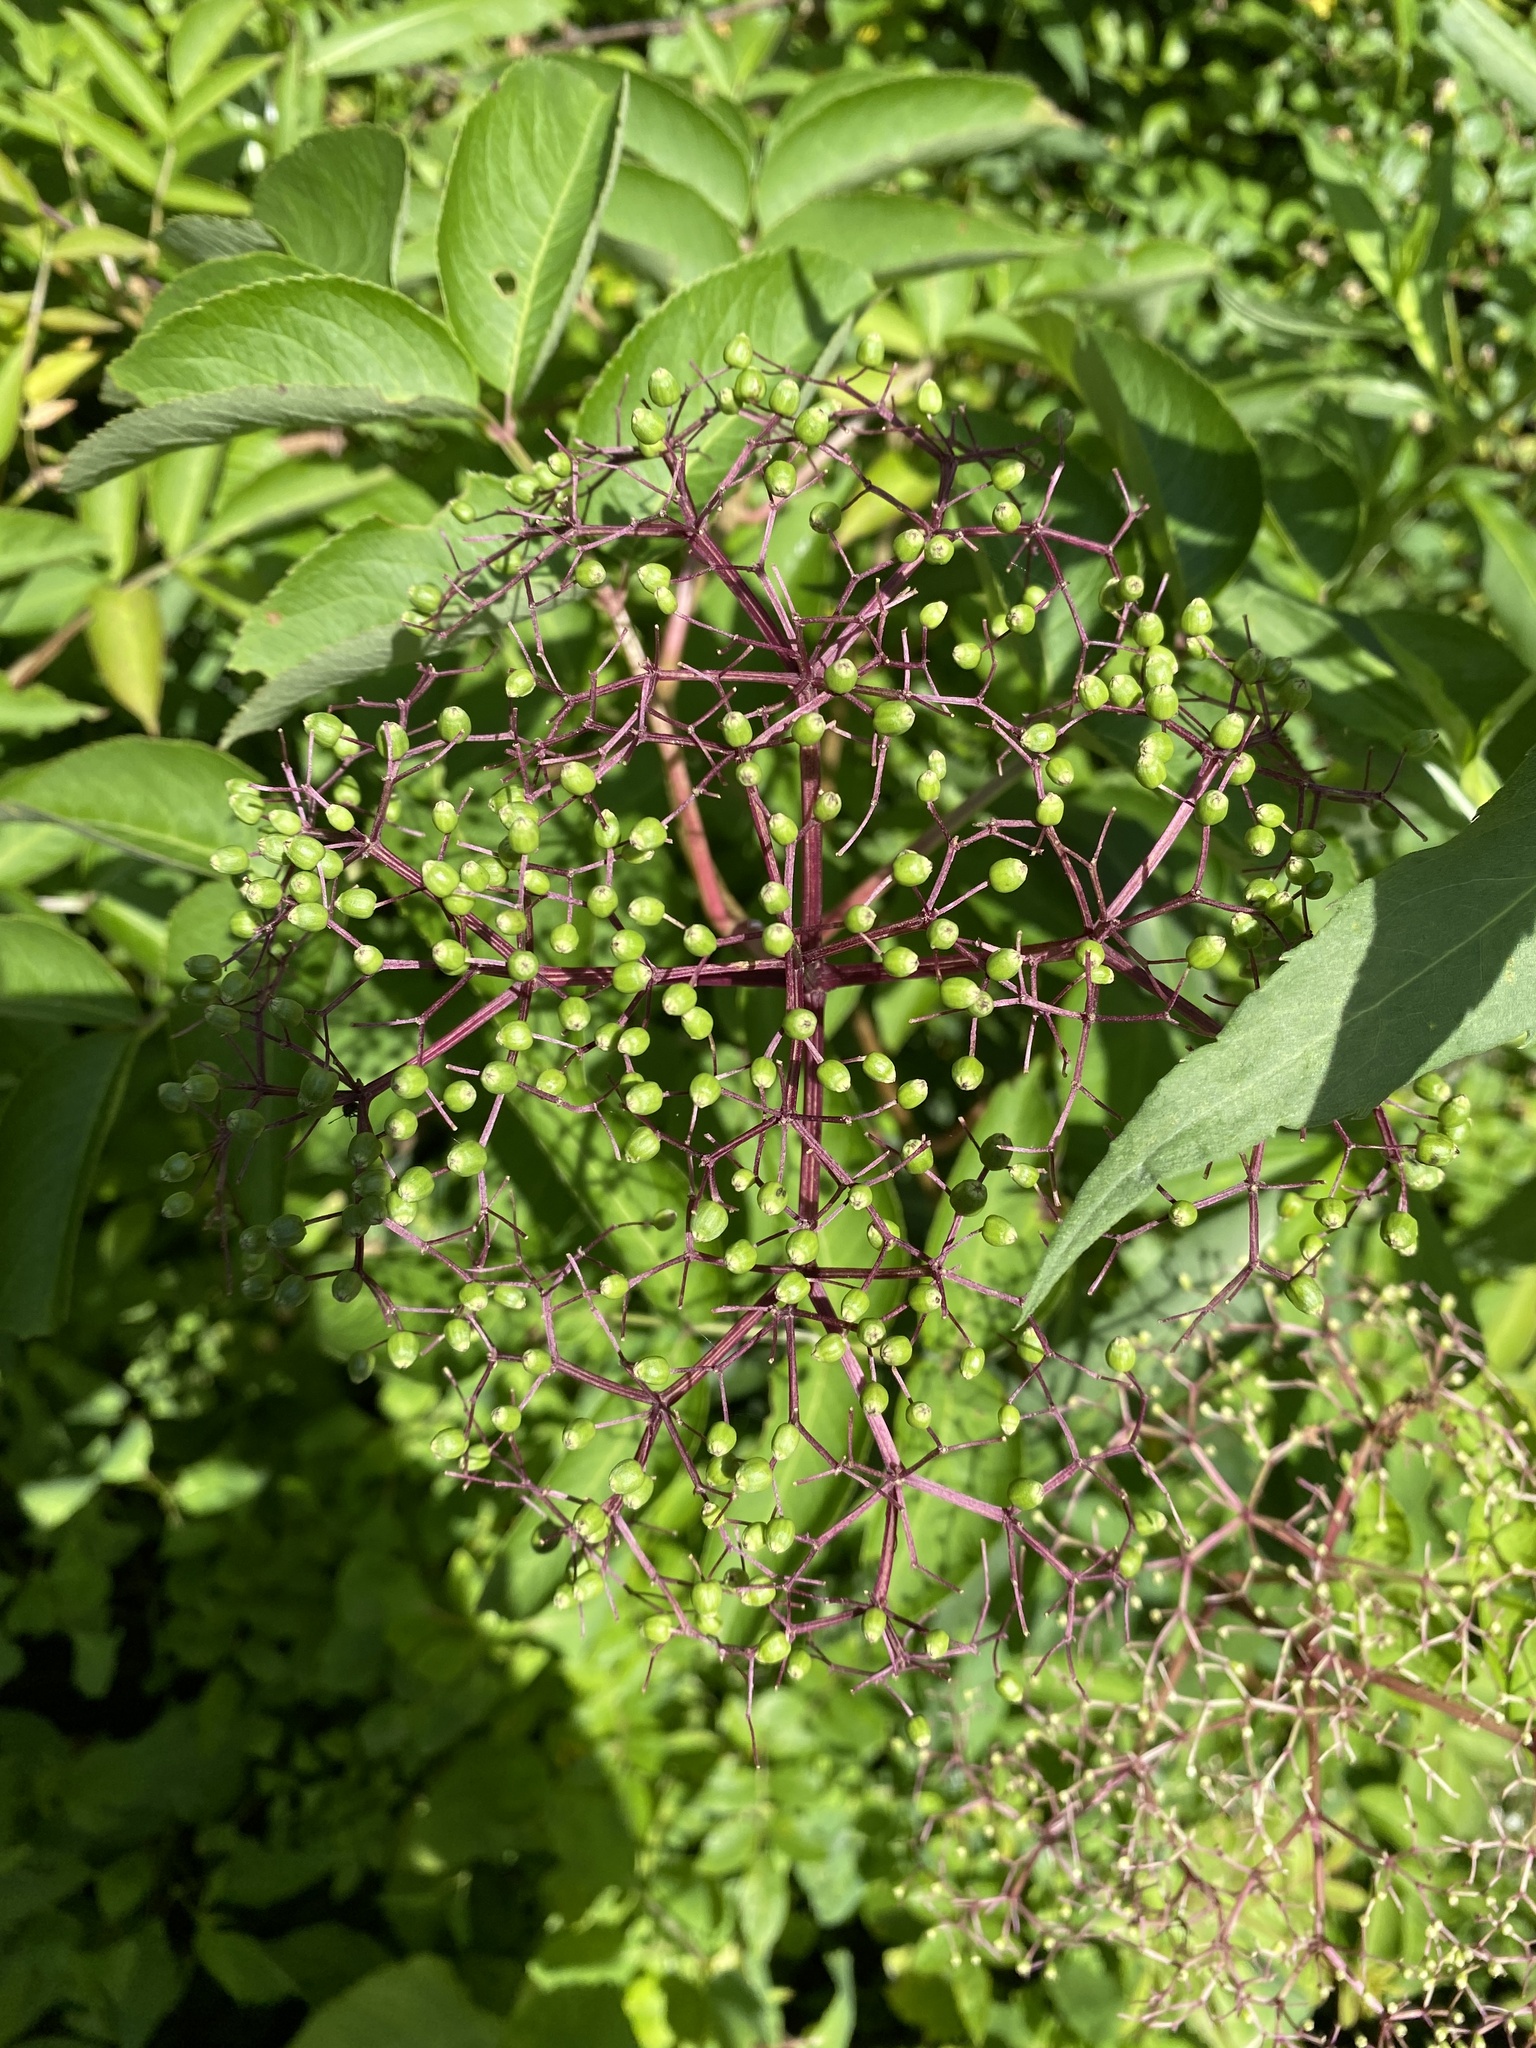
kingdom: Plantae
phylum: Tracheophyta
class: Magnoliopsida
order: Dipsacales
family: Viburnaceae
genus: Sambucus
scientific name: Sambucus canadensis
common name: American elder
